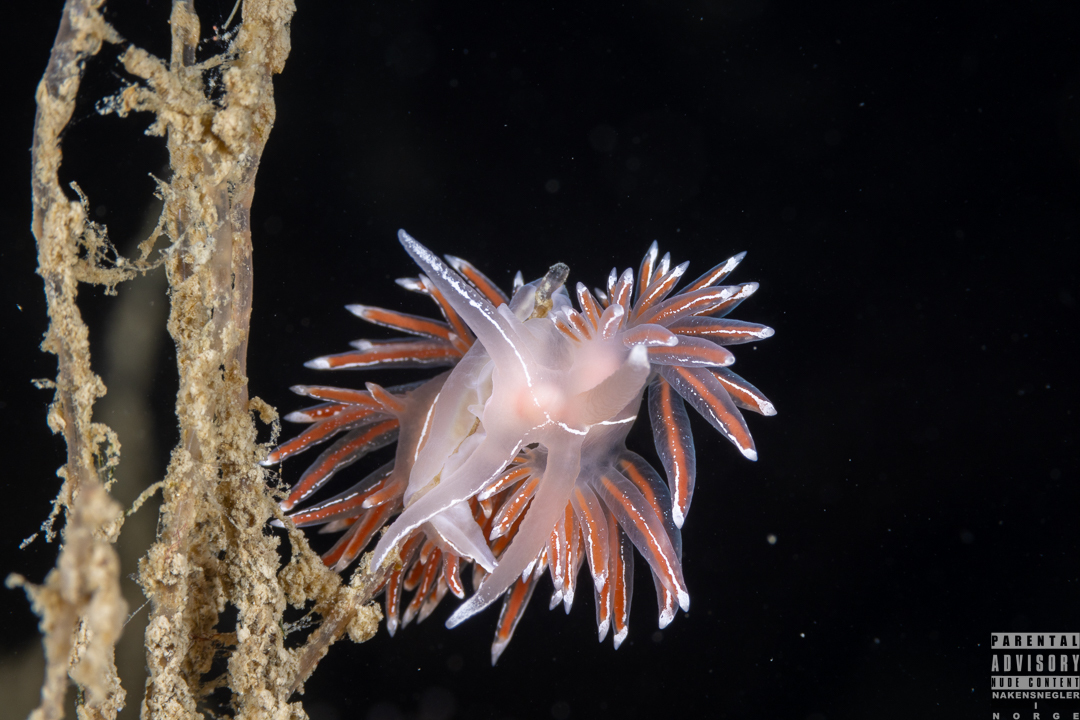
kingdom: Animalia
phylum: Mollusca
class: Gastropoda
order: Nudibranchia
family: Coryphellidae
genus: Coryphella
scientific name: Coryphella lineata
